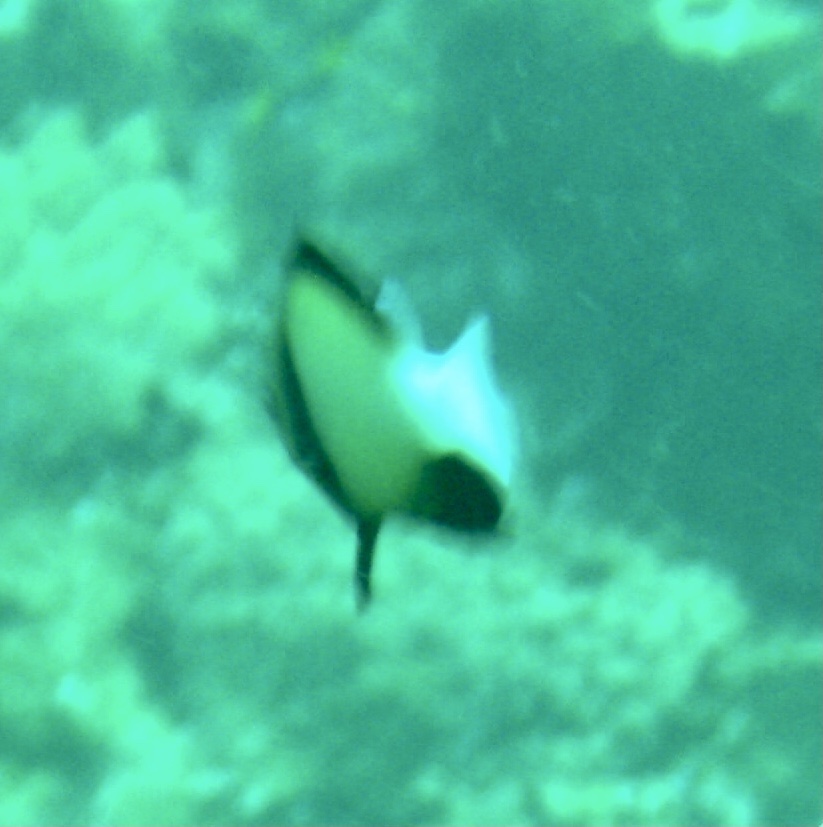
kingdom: Animalia
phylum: Chordata
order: Perciformes
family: Pomacentridae
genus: Dascyllus
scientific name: Dascyllus carneus
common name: Indian dascyllus
